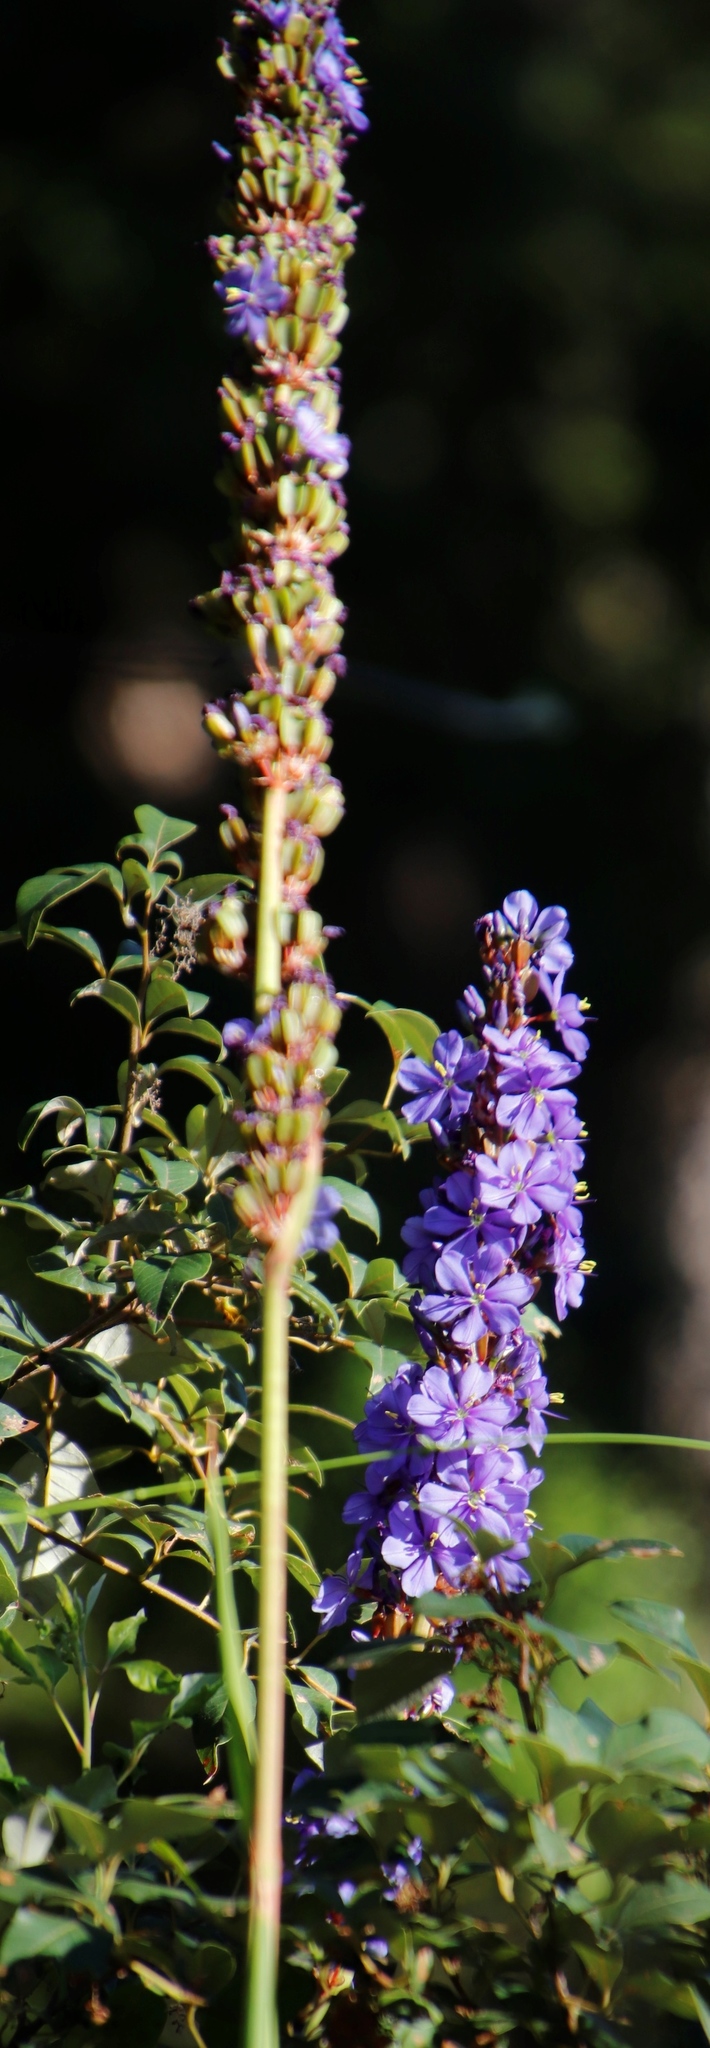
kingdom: Plantae
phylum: Tracheophyta
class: Liliopsida
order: Asparagales
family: Iridaceae
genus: Aristea
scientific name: Aristea capitata
